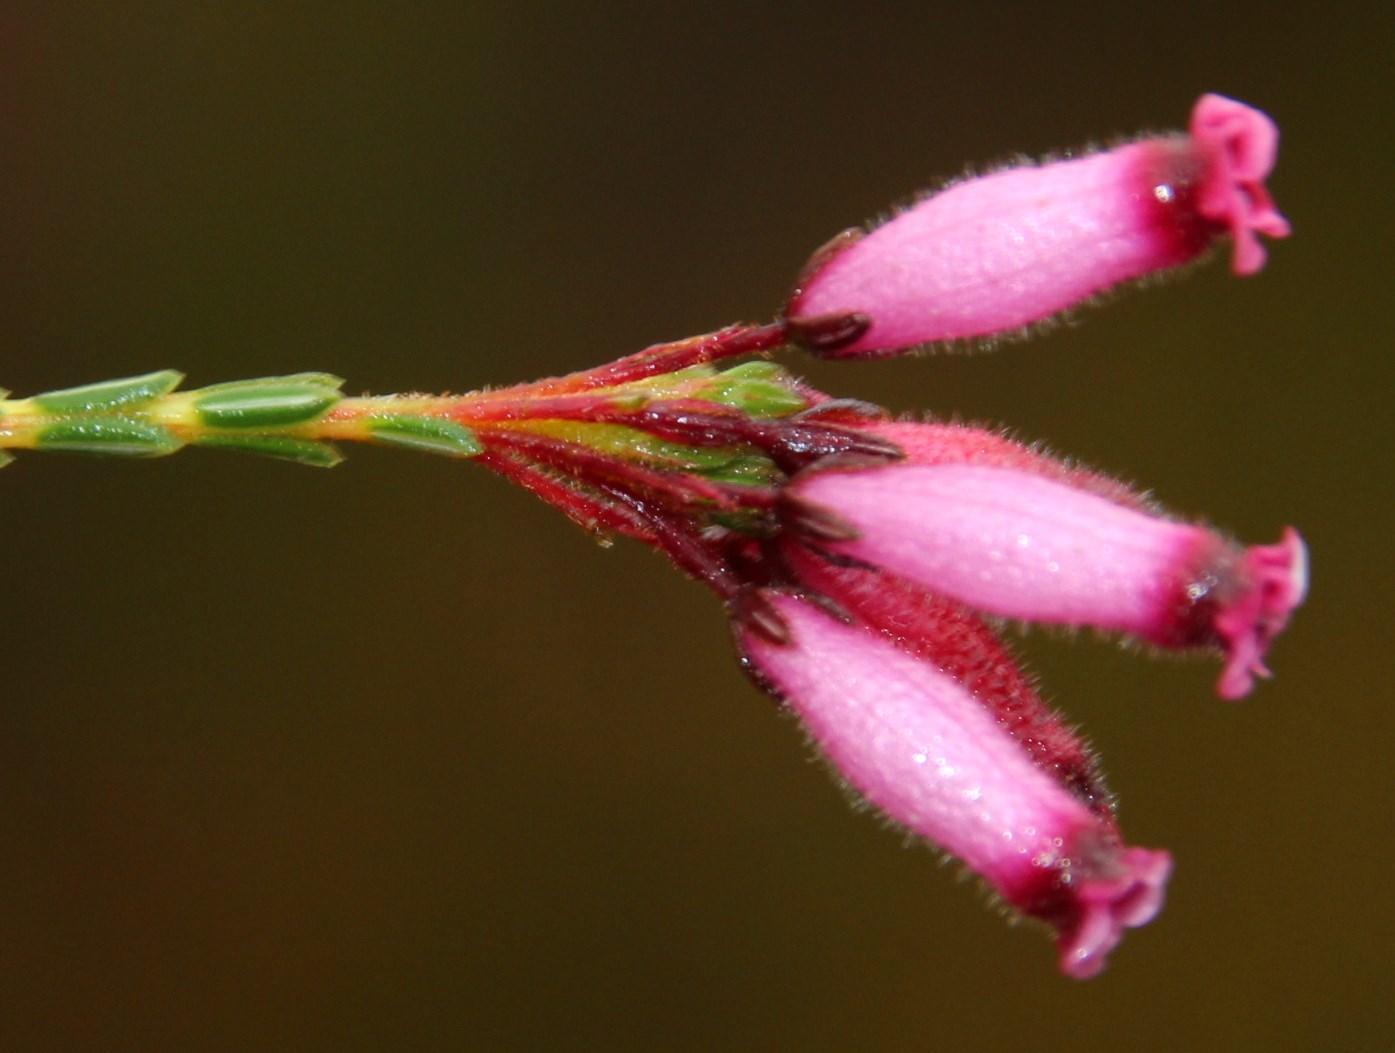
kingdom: Plantae
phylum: Tracheophyta
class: Magnoliopsida
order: Ericales
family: Ericaceae
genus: Erica
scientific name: Erica cristata
